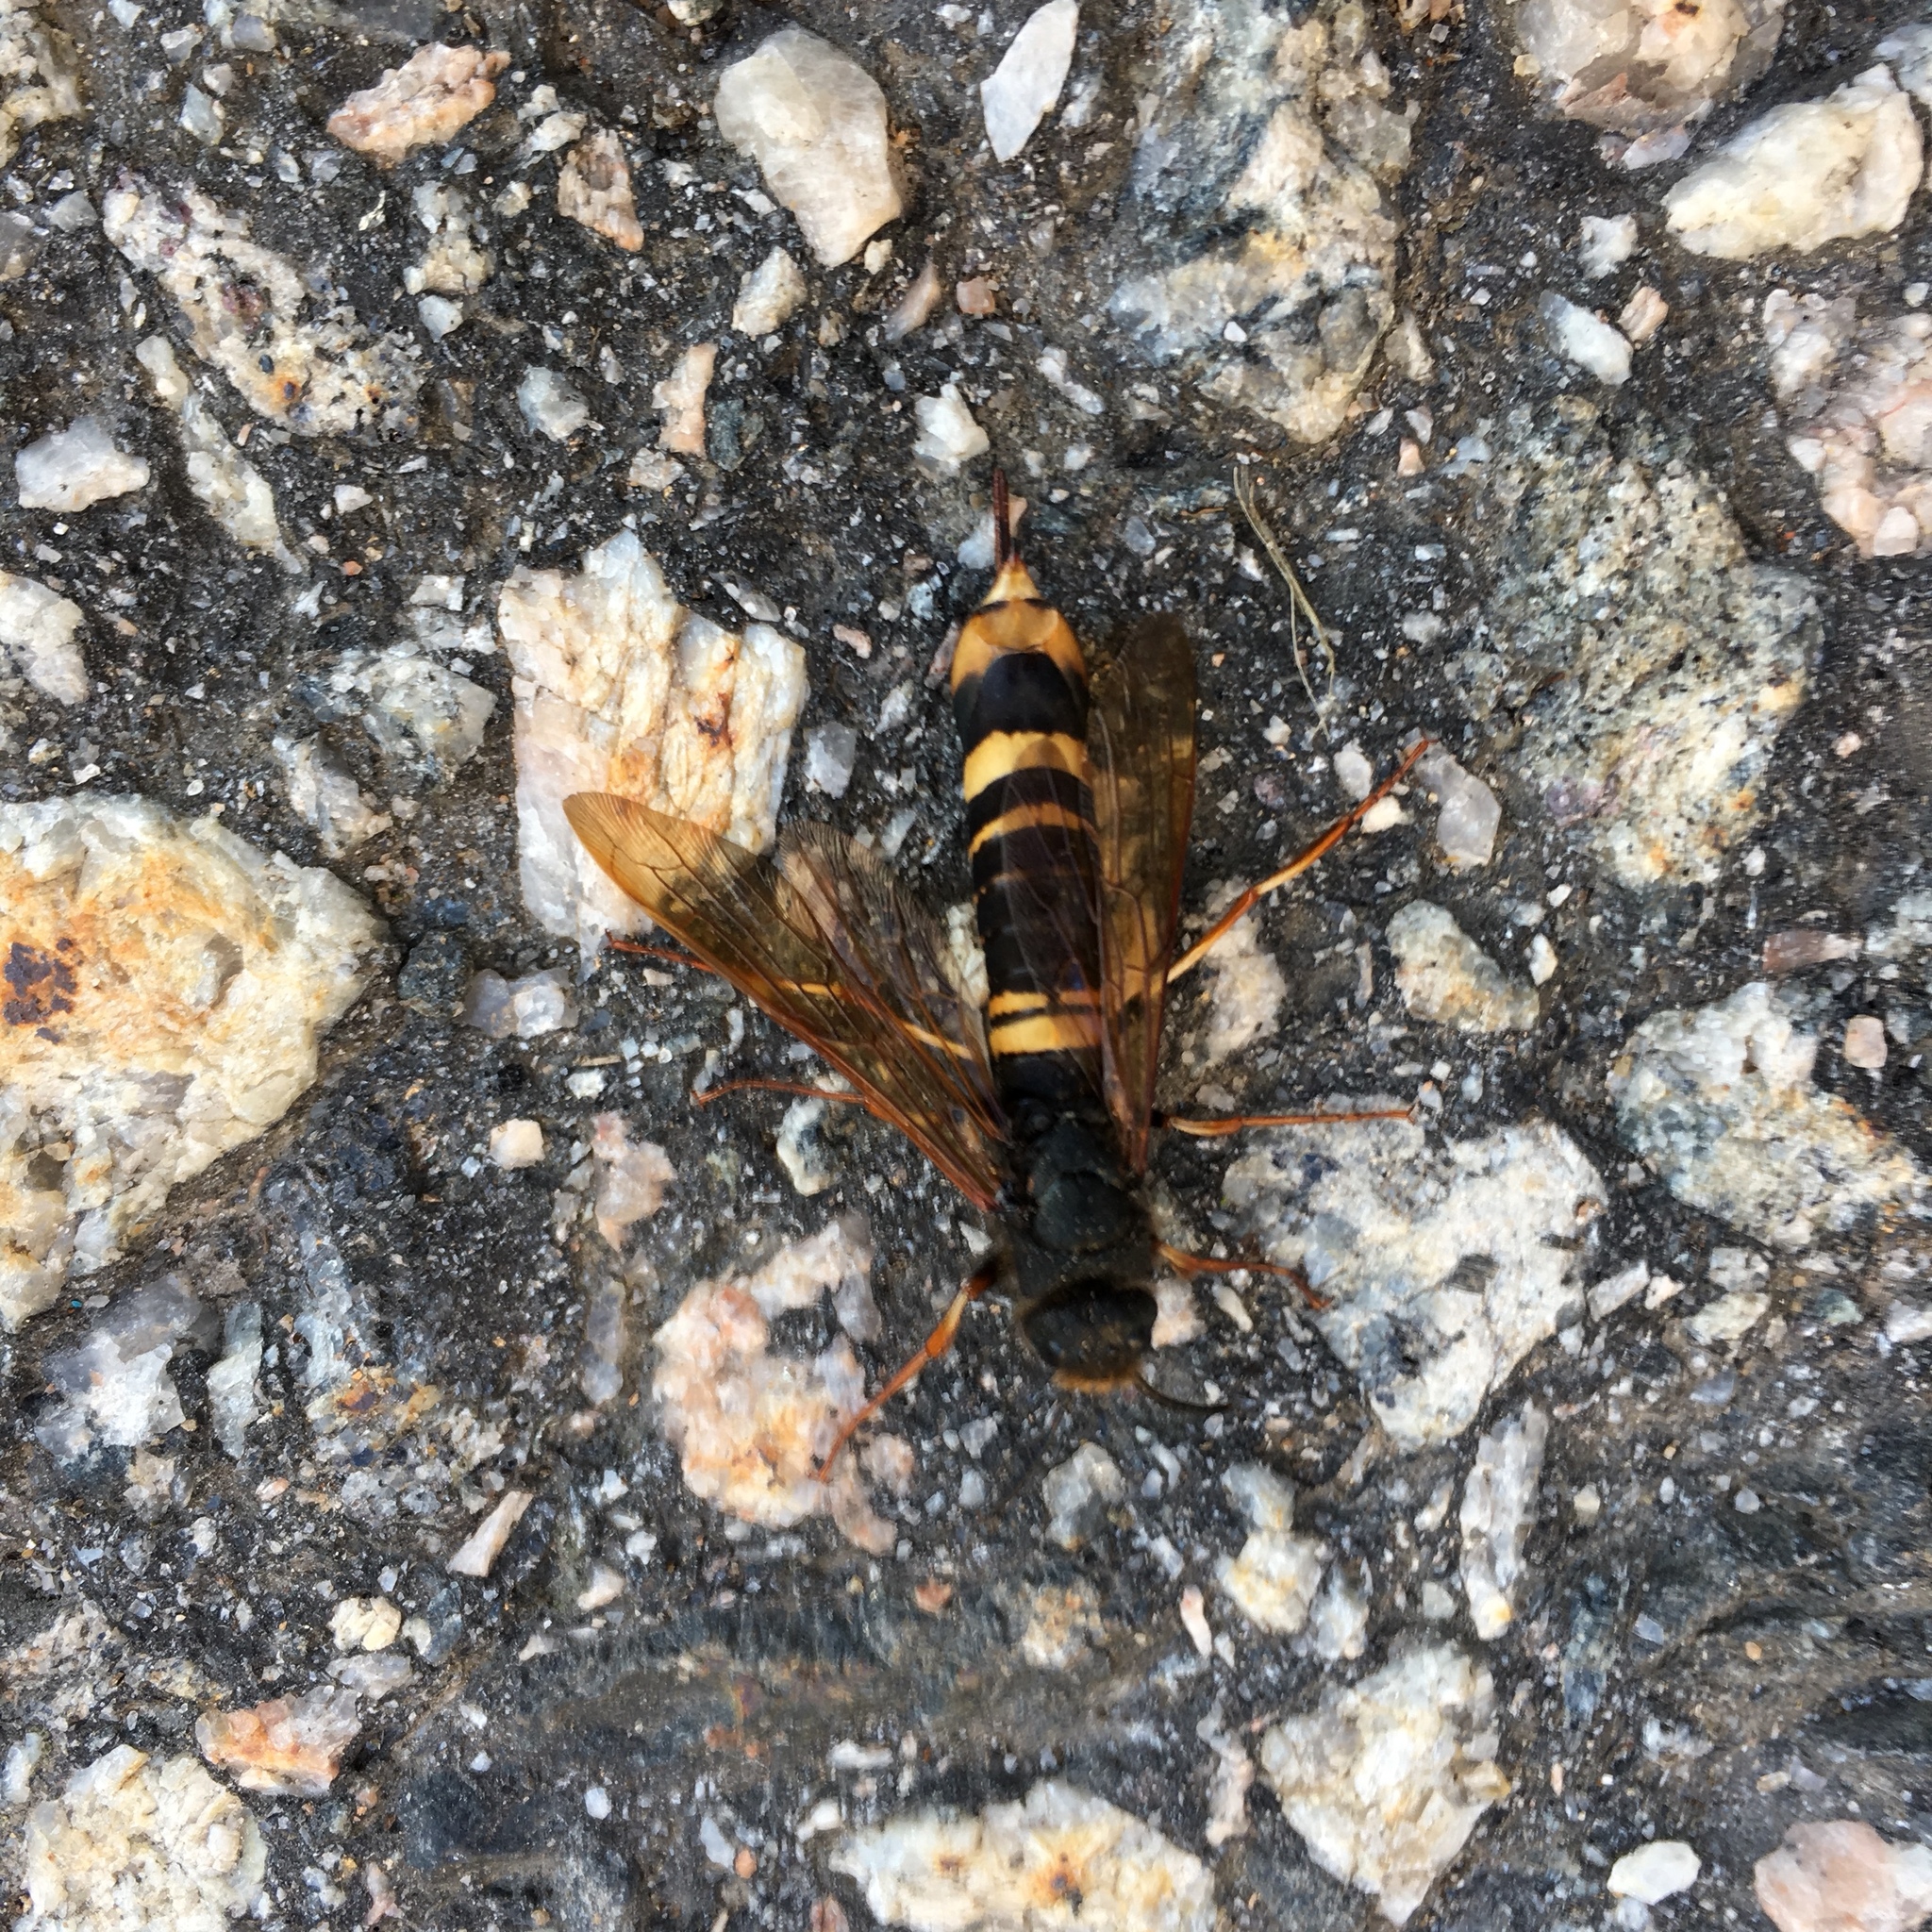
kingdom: Animalia
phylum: Arthropoda
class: Insecta
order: Hymenoptera
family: Siricidae
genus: Tremex
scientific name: Tremex fuscicornis
